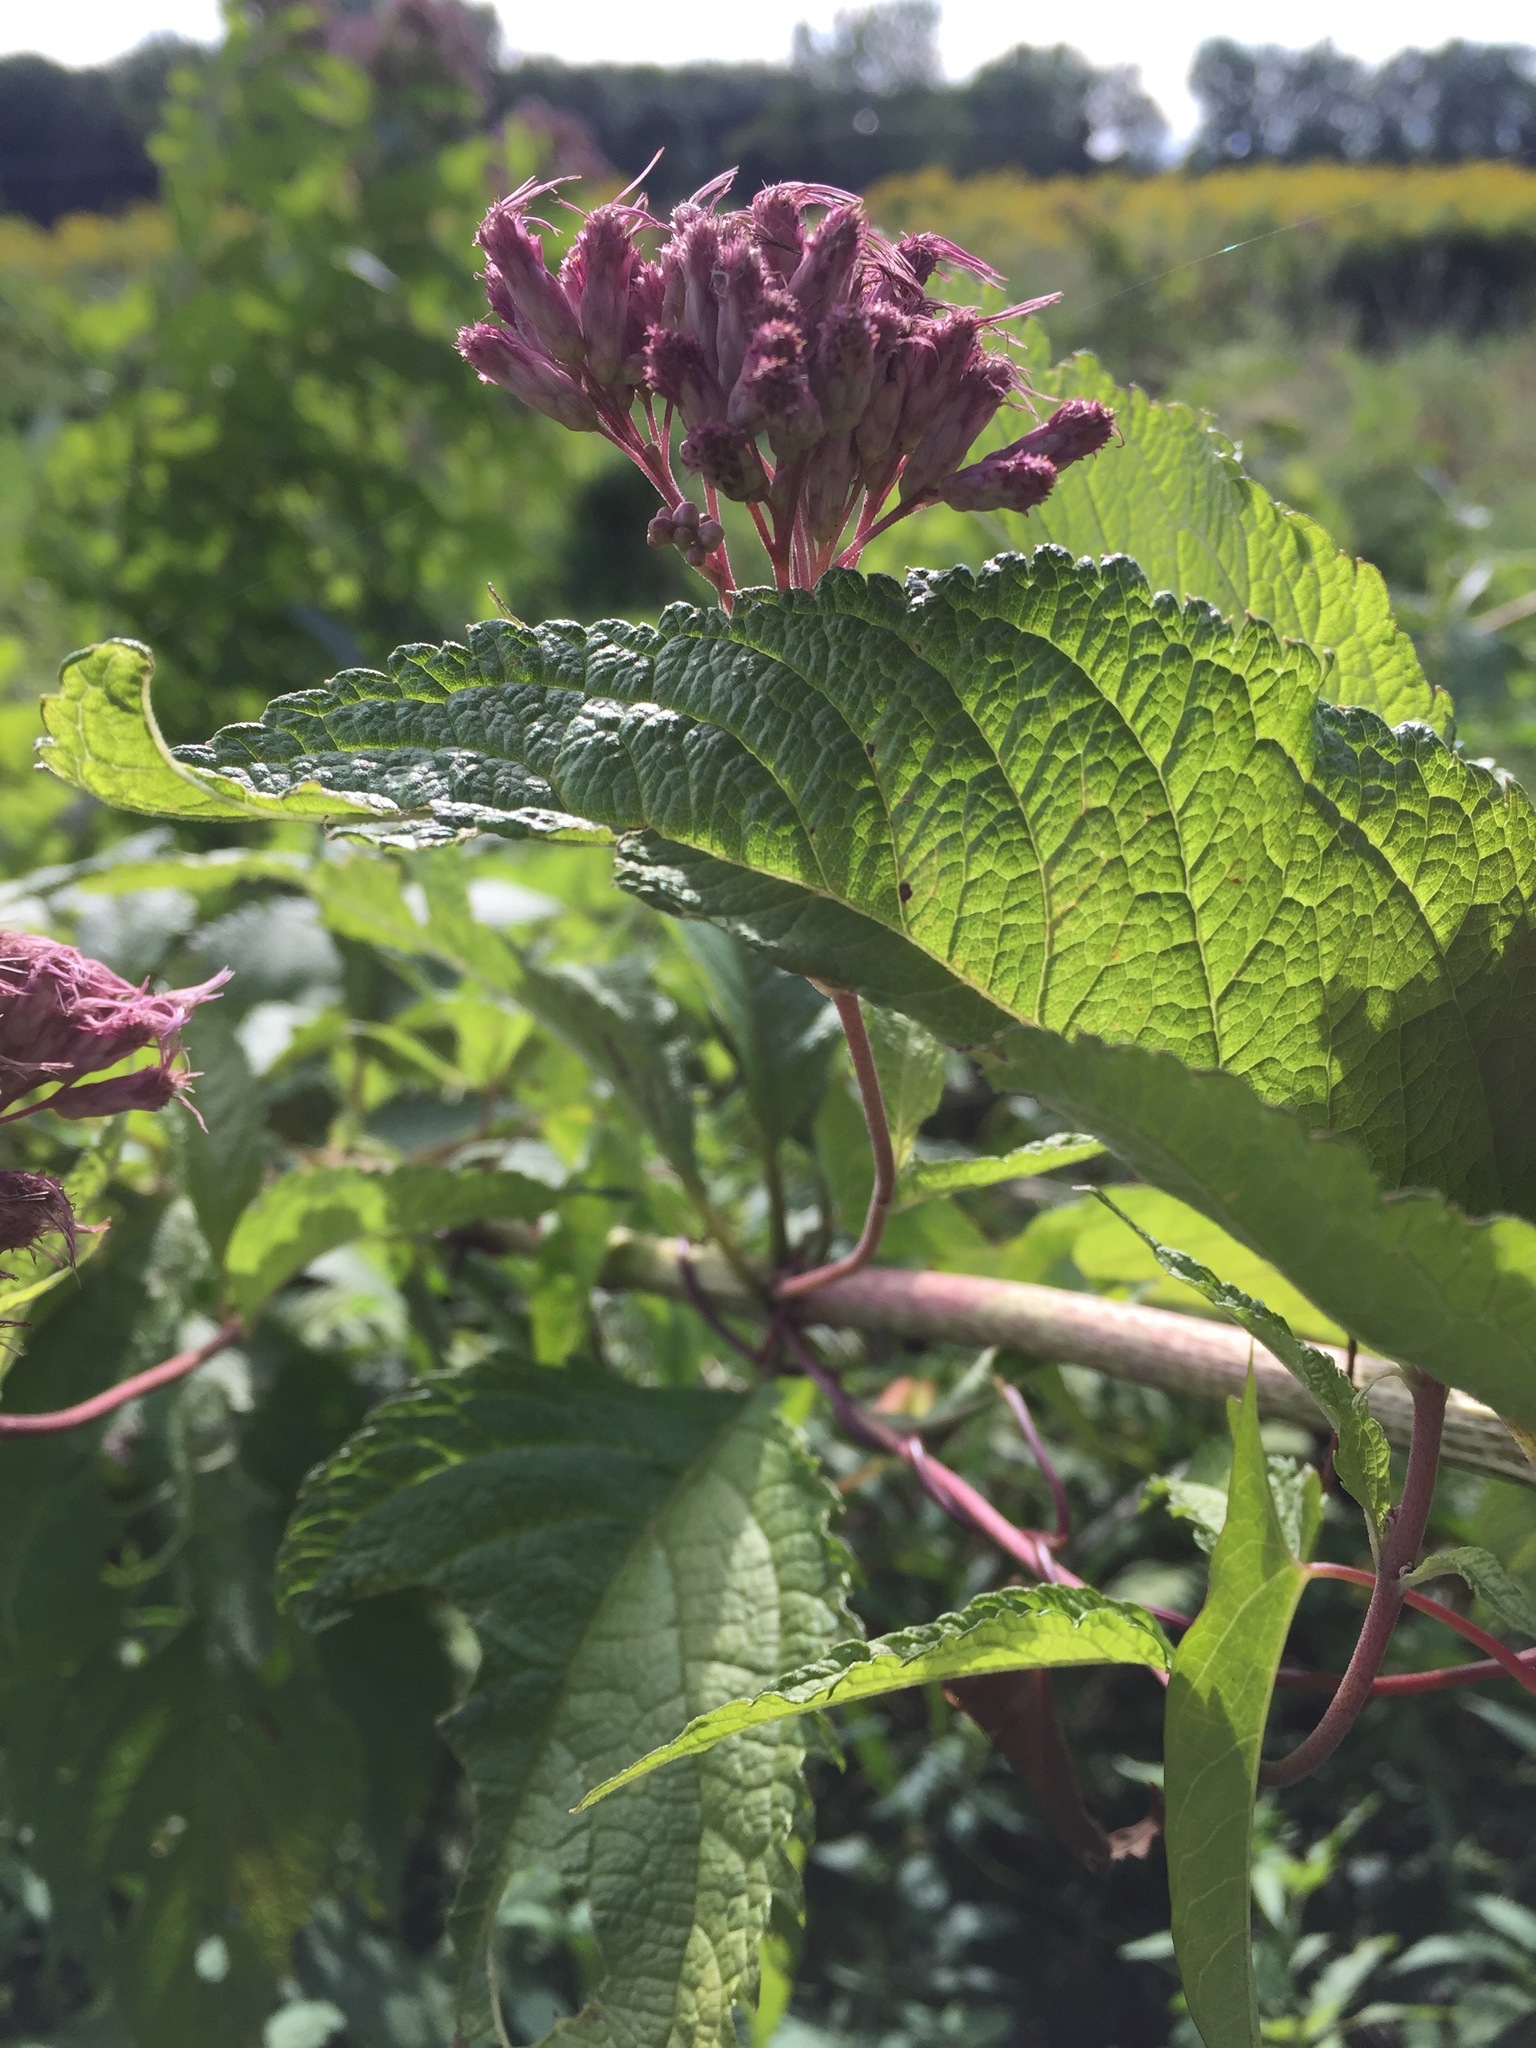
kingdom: Plantae
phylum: Tracheophyta
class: Magnoliopsida
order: Asterales
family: Asteraceae
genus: Eutrochium
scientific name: Eutrochium maculatum
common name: Spotted joe pye weed
